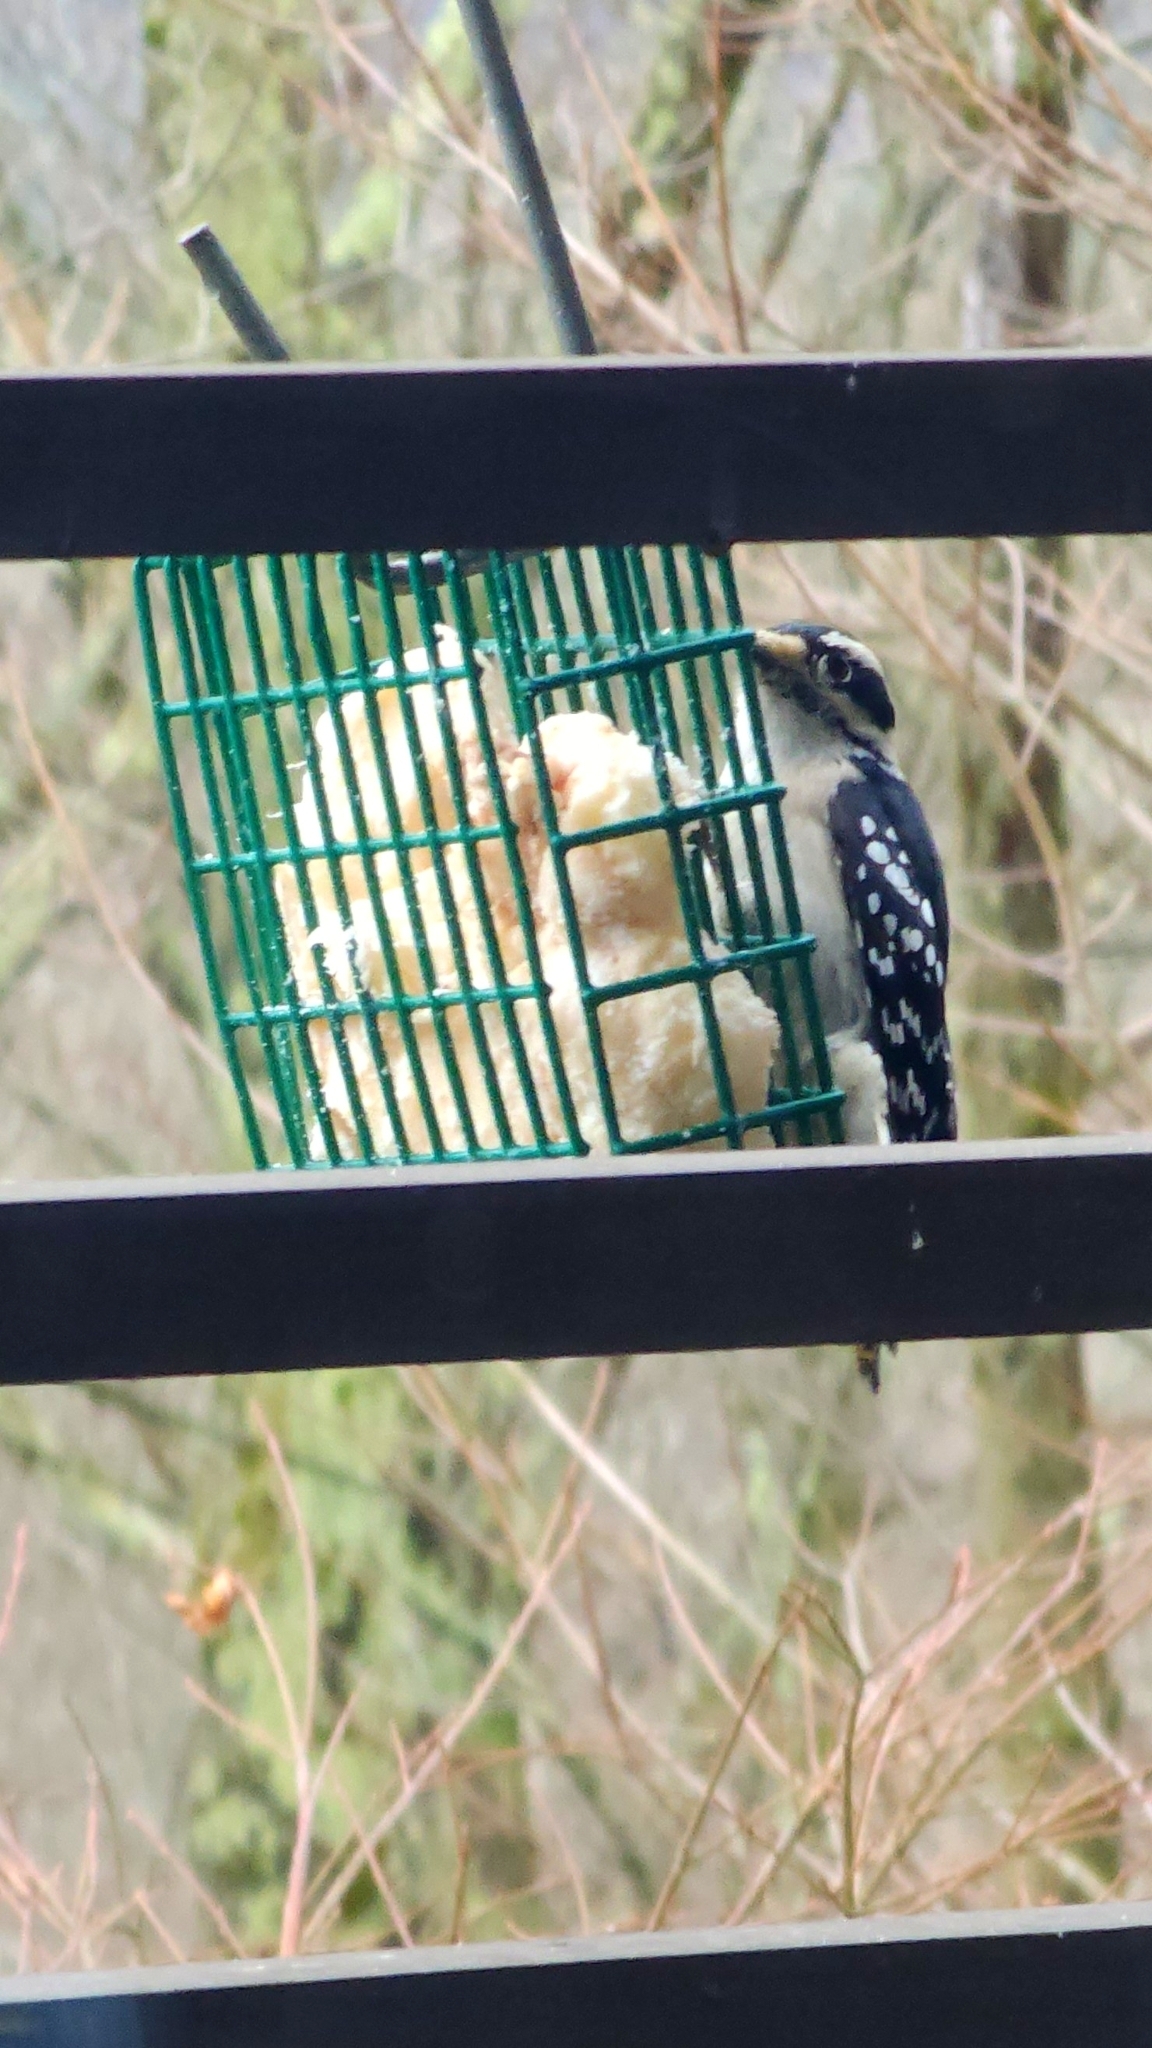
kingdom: Animalia
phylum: Chordata
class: Aves
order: Piciformes
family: Picidae
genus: Dryobates
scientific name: Dryobates pubescens
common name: Downy woodpecker
